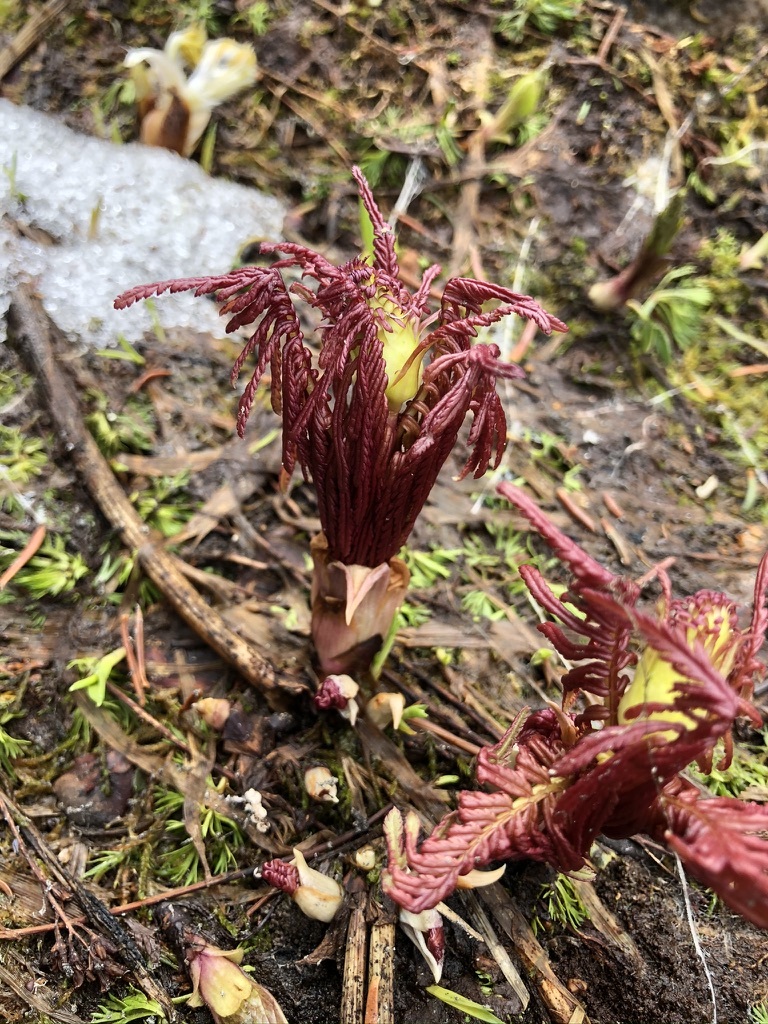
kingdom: Plantae
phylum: Tracheophyta
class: Magnoliopsida
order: Lamiales
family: Orobanchaceae
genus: Pedicularis
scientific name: Pedicularis bracteosa
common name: Bracted lousewort
